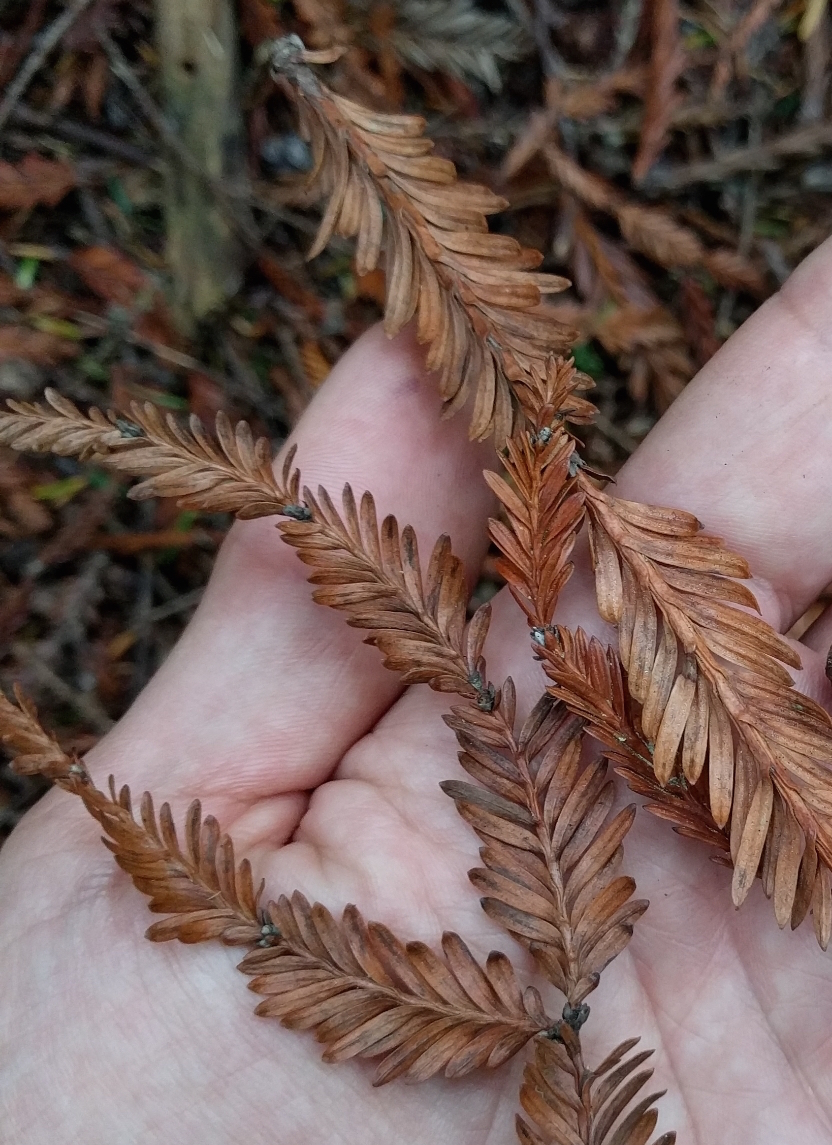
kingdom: Plantae
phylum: Tracheophyta
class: Pinopsida
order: Pinales
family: Cupressaceae
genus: Sequoia
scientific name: Sequoia sempervirens
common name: Coast redwood
